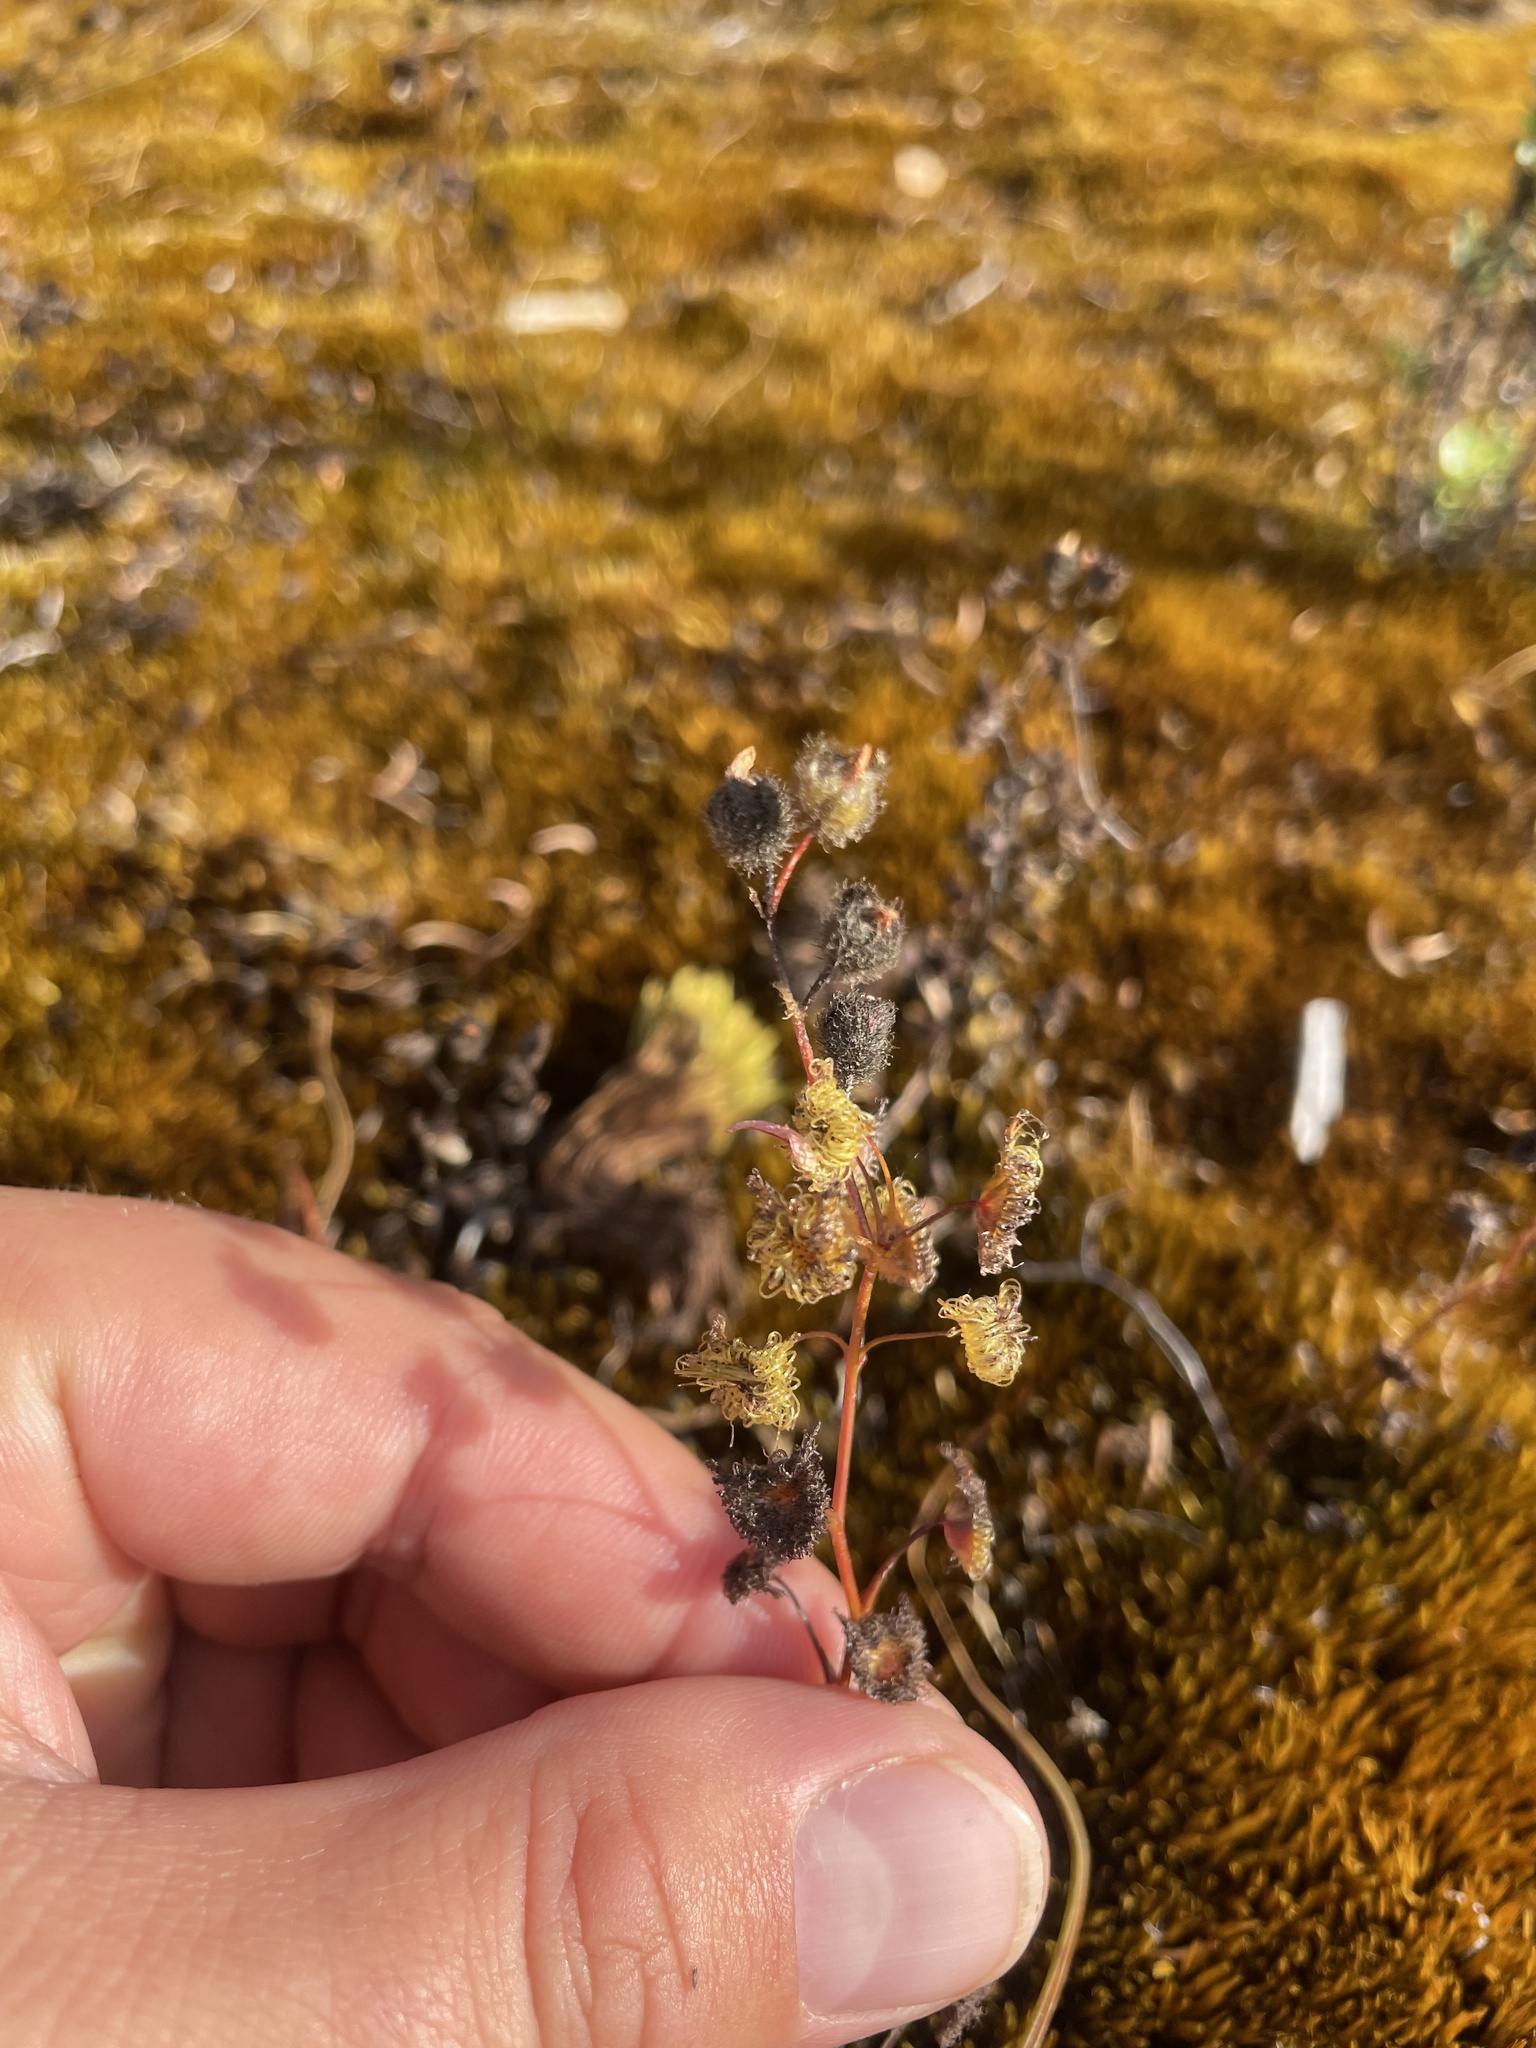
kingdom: Plantae
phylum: Tracheophyta
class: Magnoliopsida
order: Caryophyllales
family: Droseraceae
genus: Drosera
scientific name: Drosera gunniana
